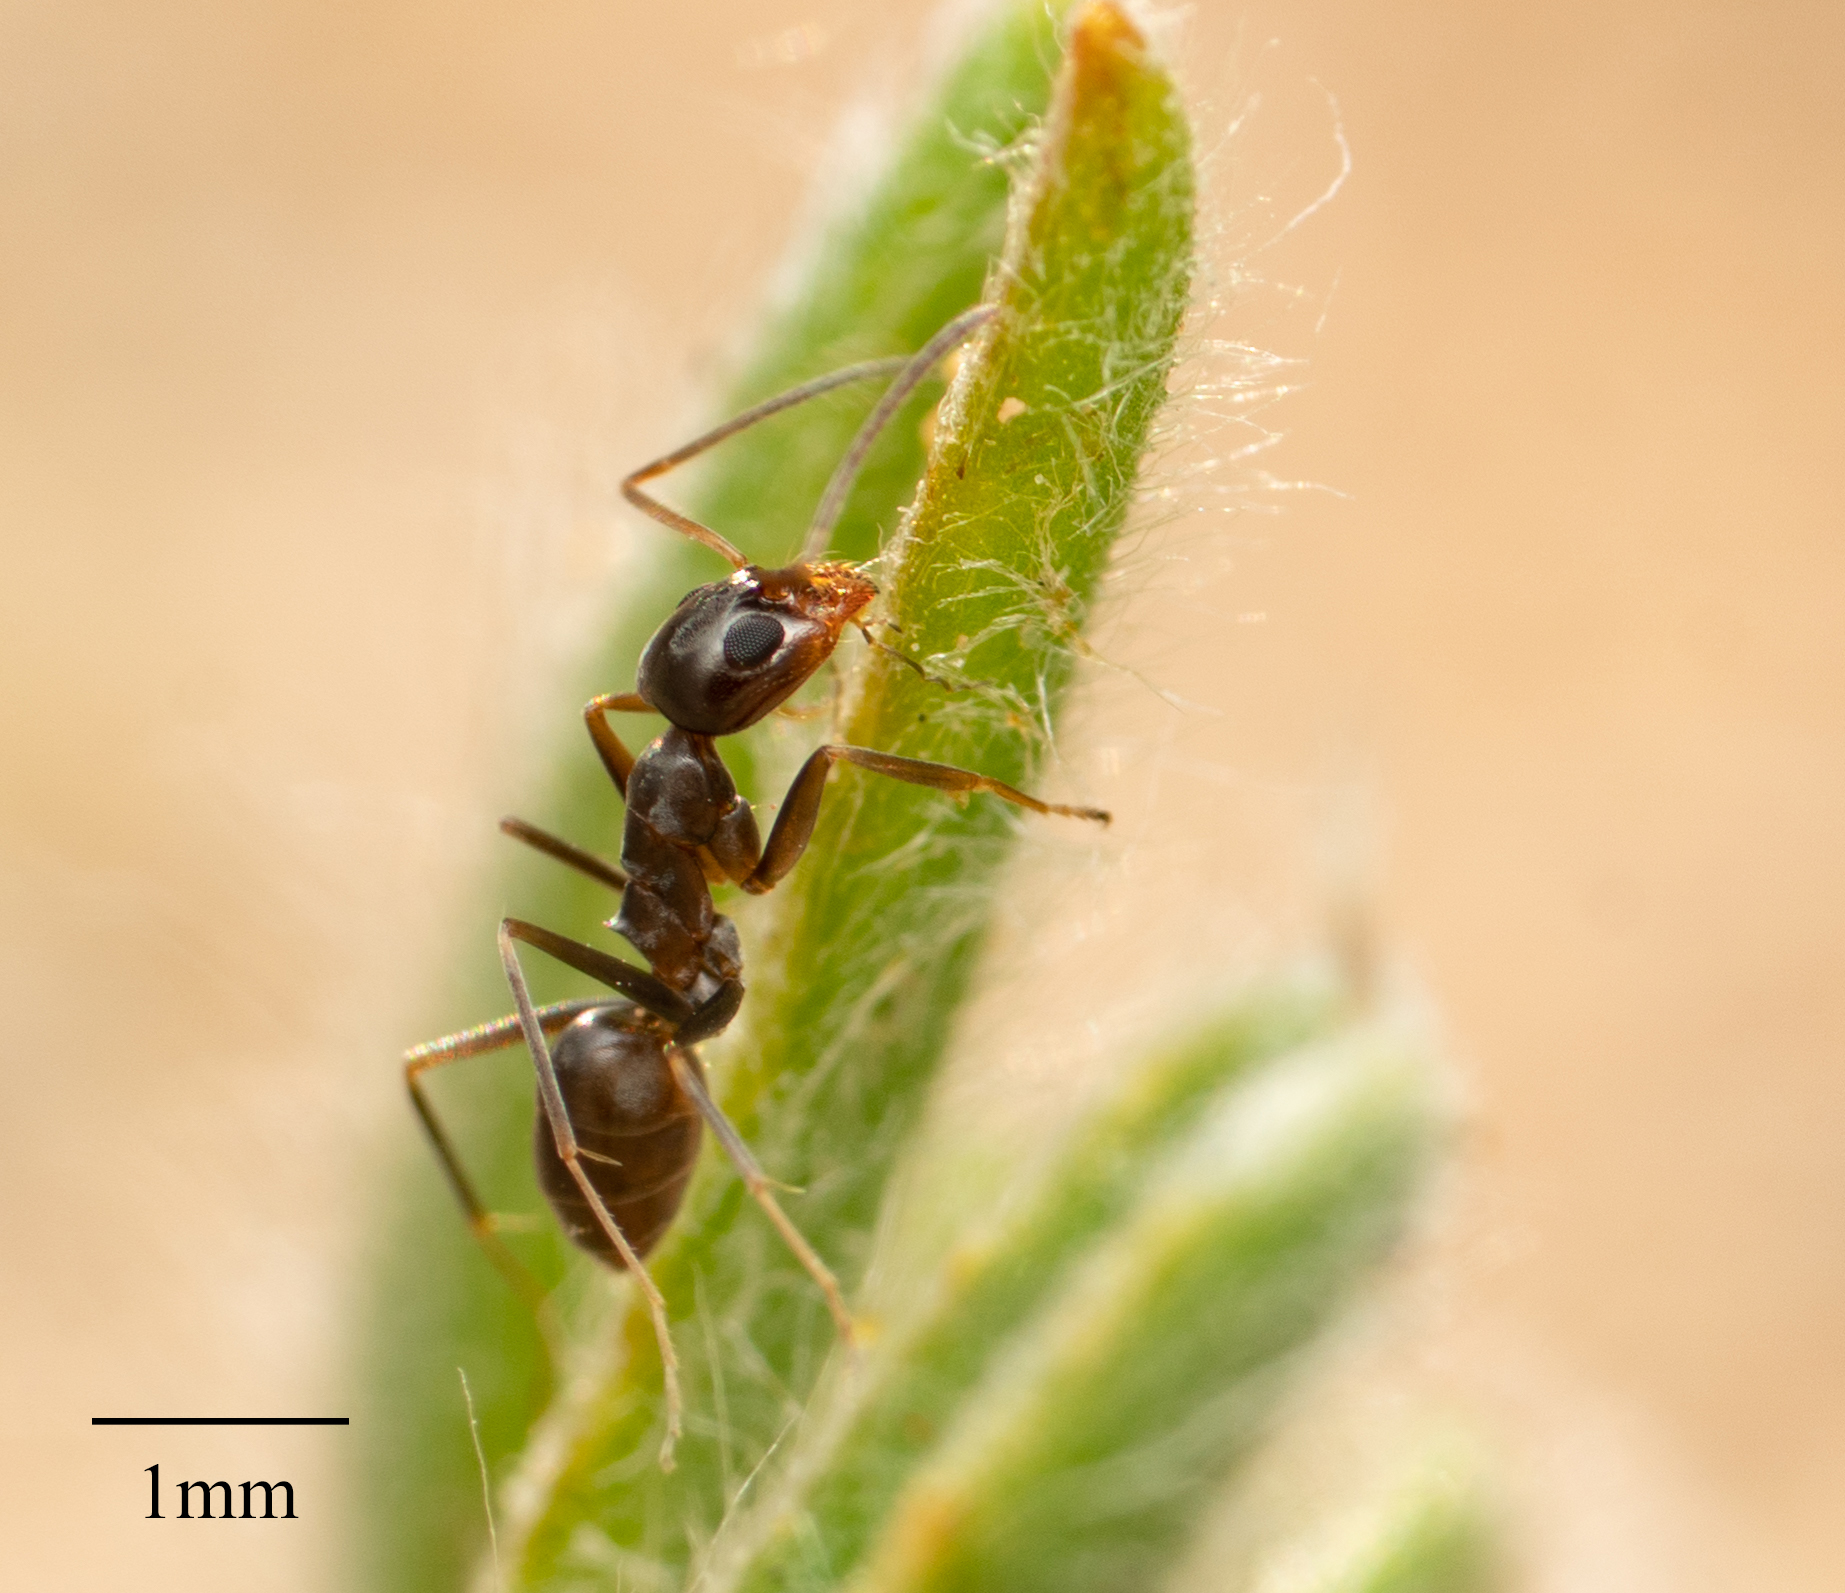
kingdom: Animalia
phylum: Arthropoda
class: Insecta
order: Hymenoptera
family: Formicidae
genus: Dorymyrmex
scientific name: Dorymyrmex insanus
